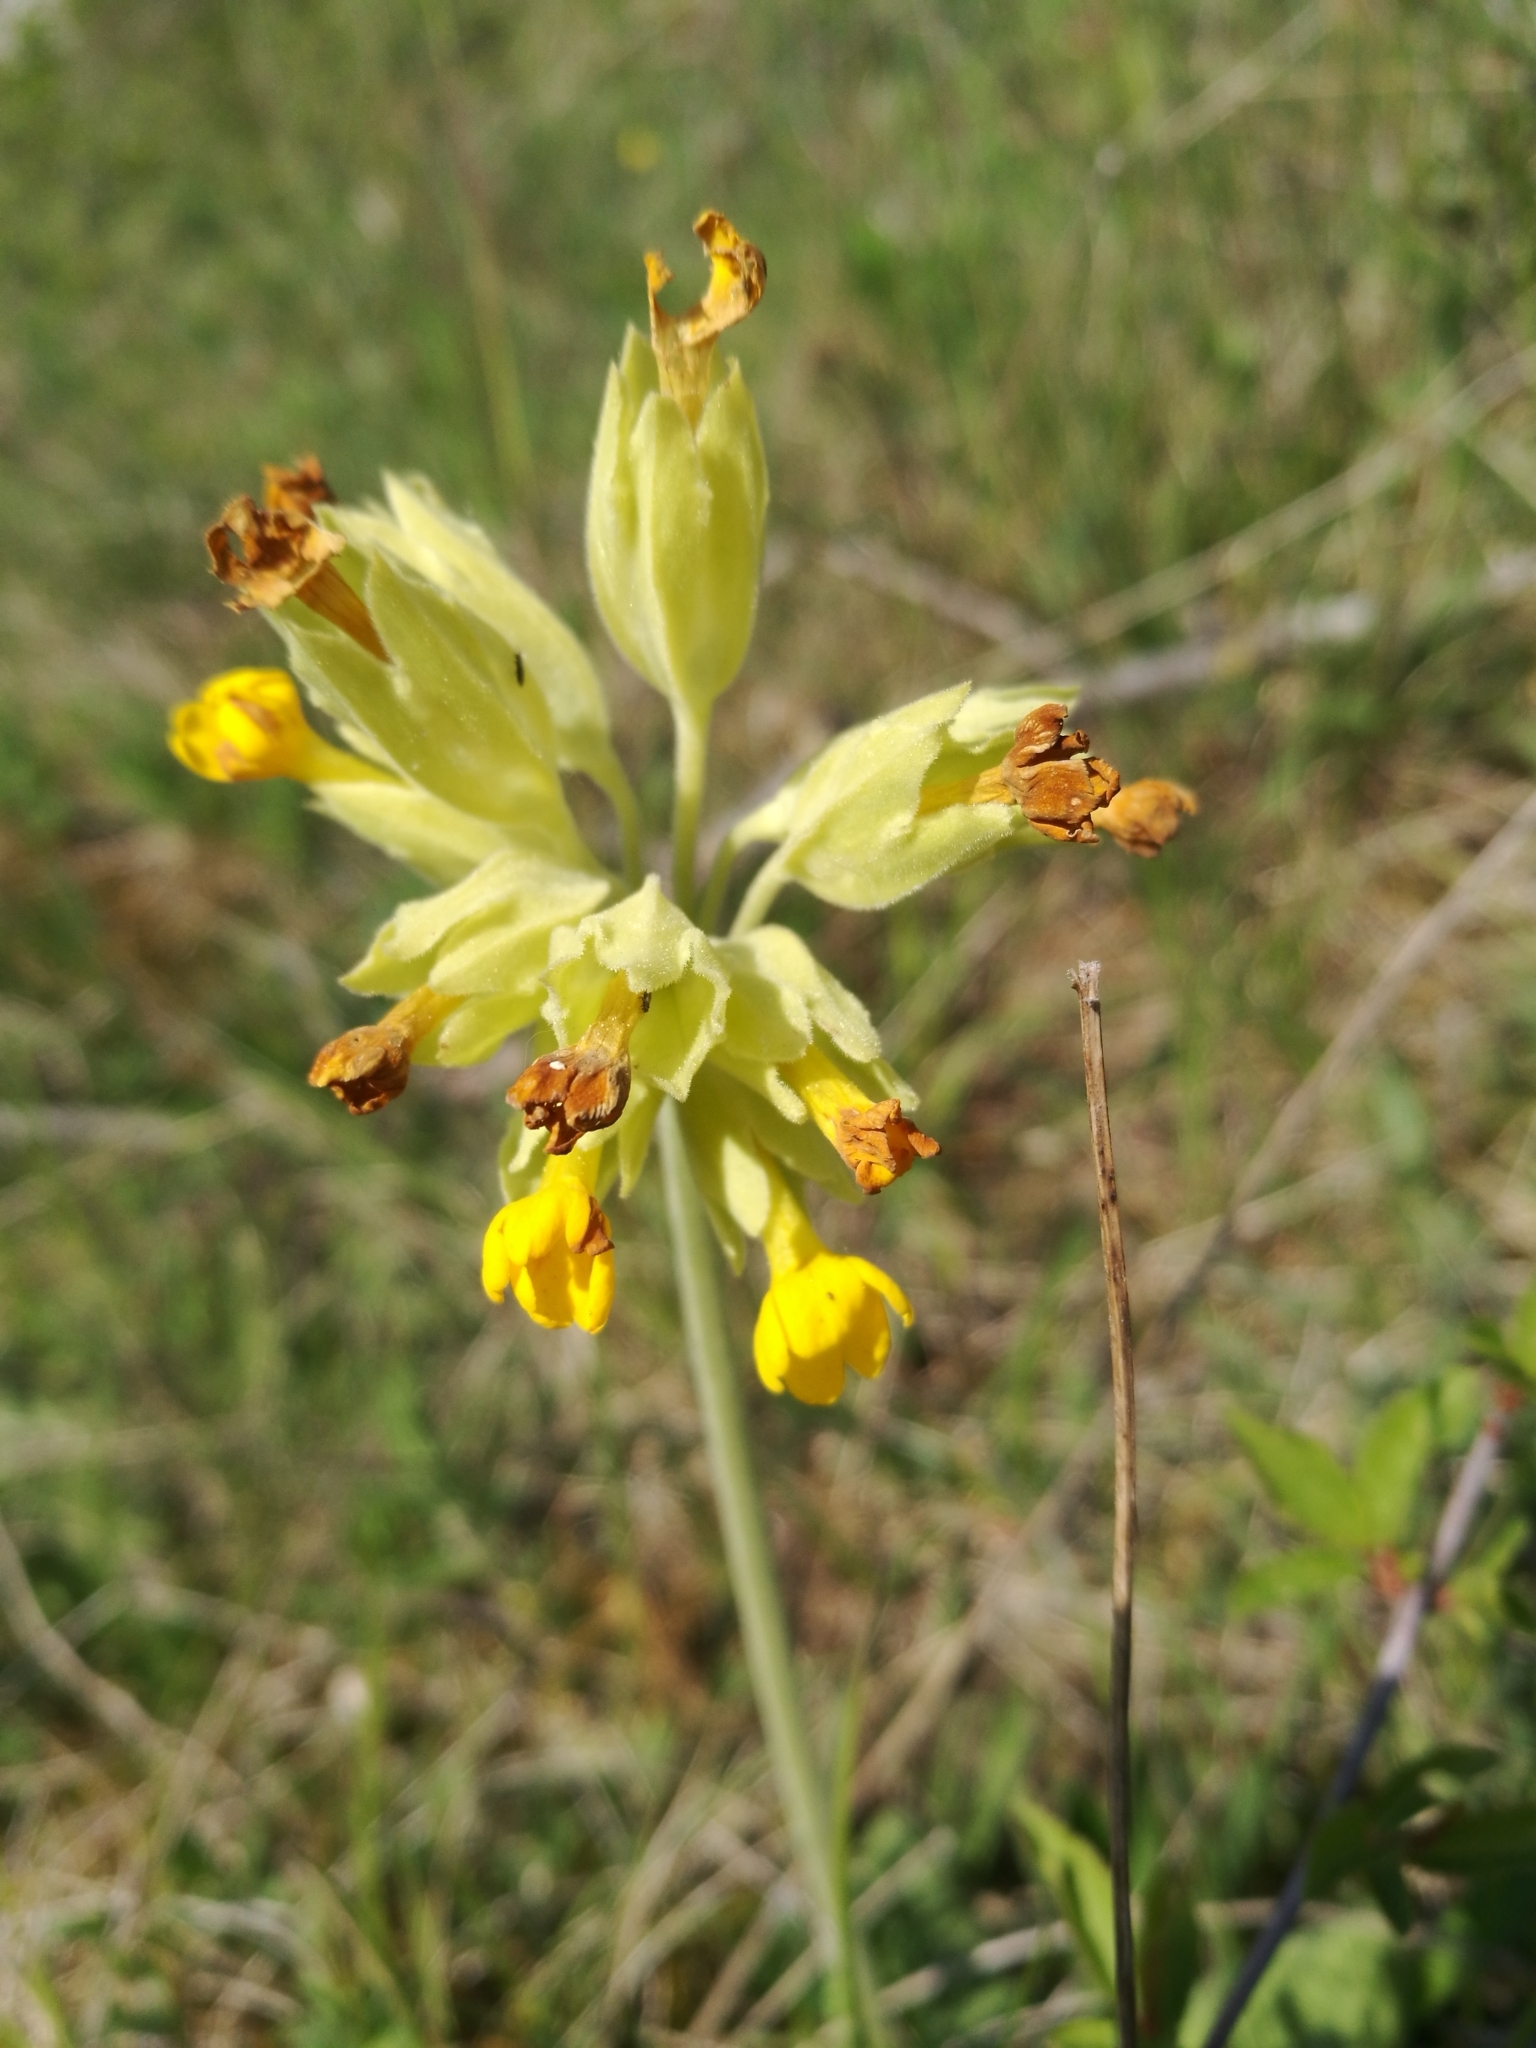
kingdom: Plantae
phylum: Tracheophyta
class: Magnoliopsida
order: Ericales
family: Primulaceae
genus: Primula
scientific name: Primula veris
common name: Cowslip
